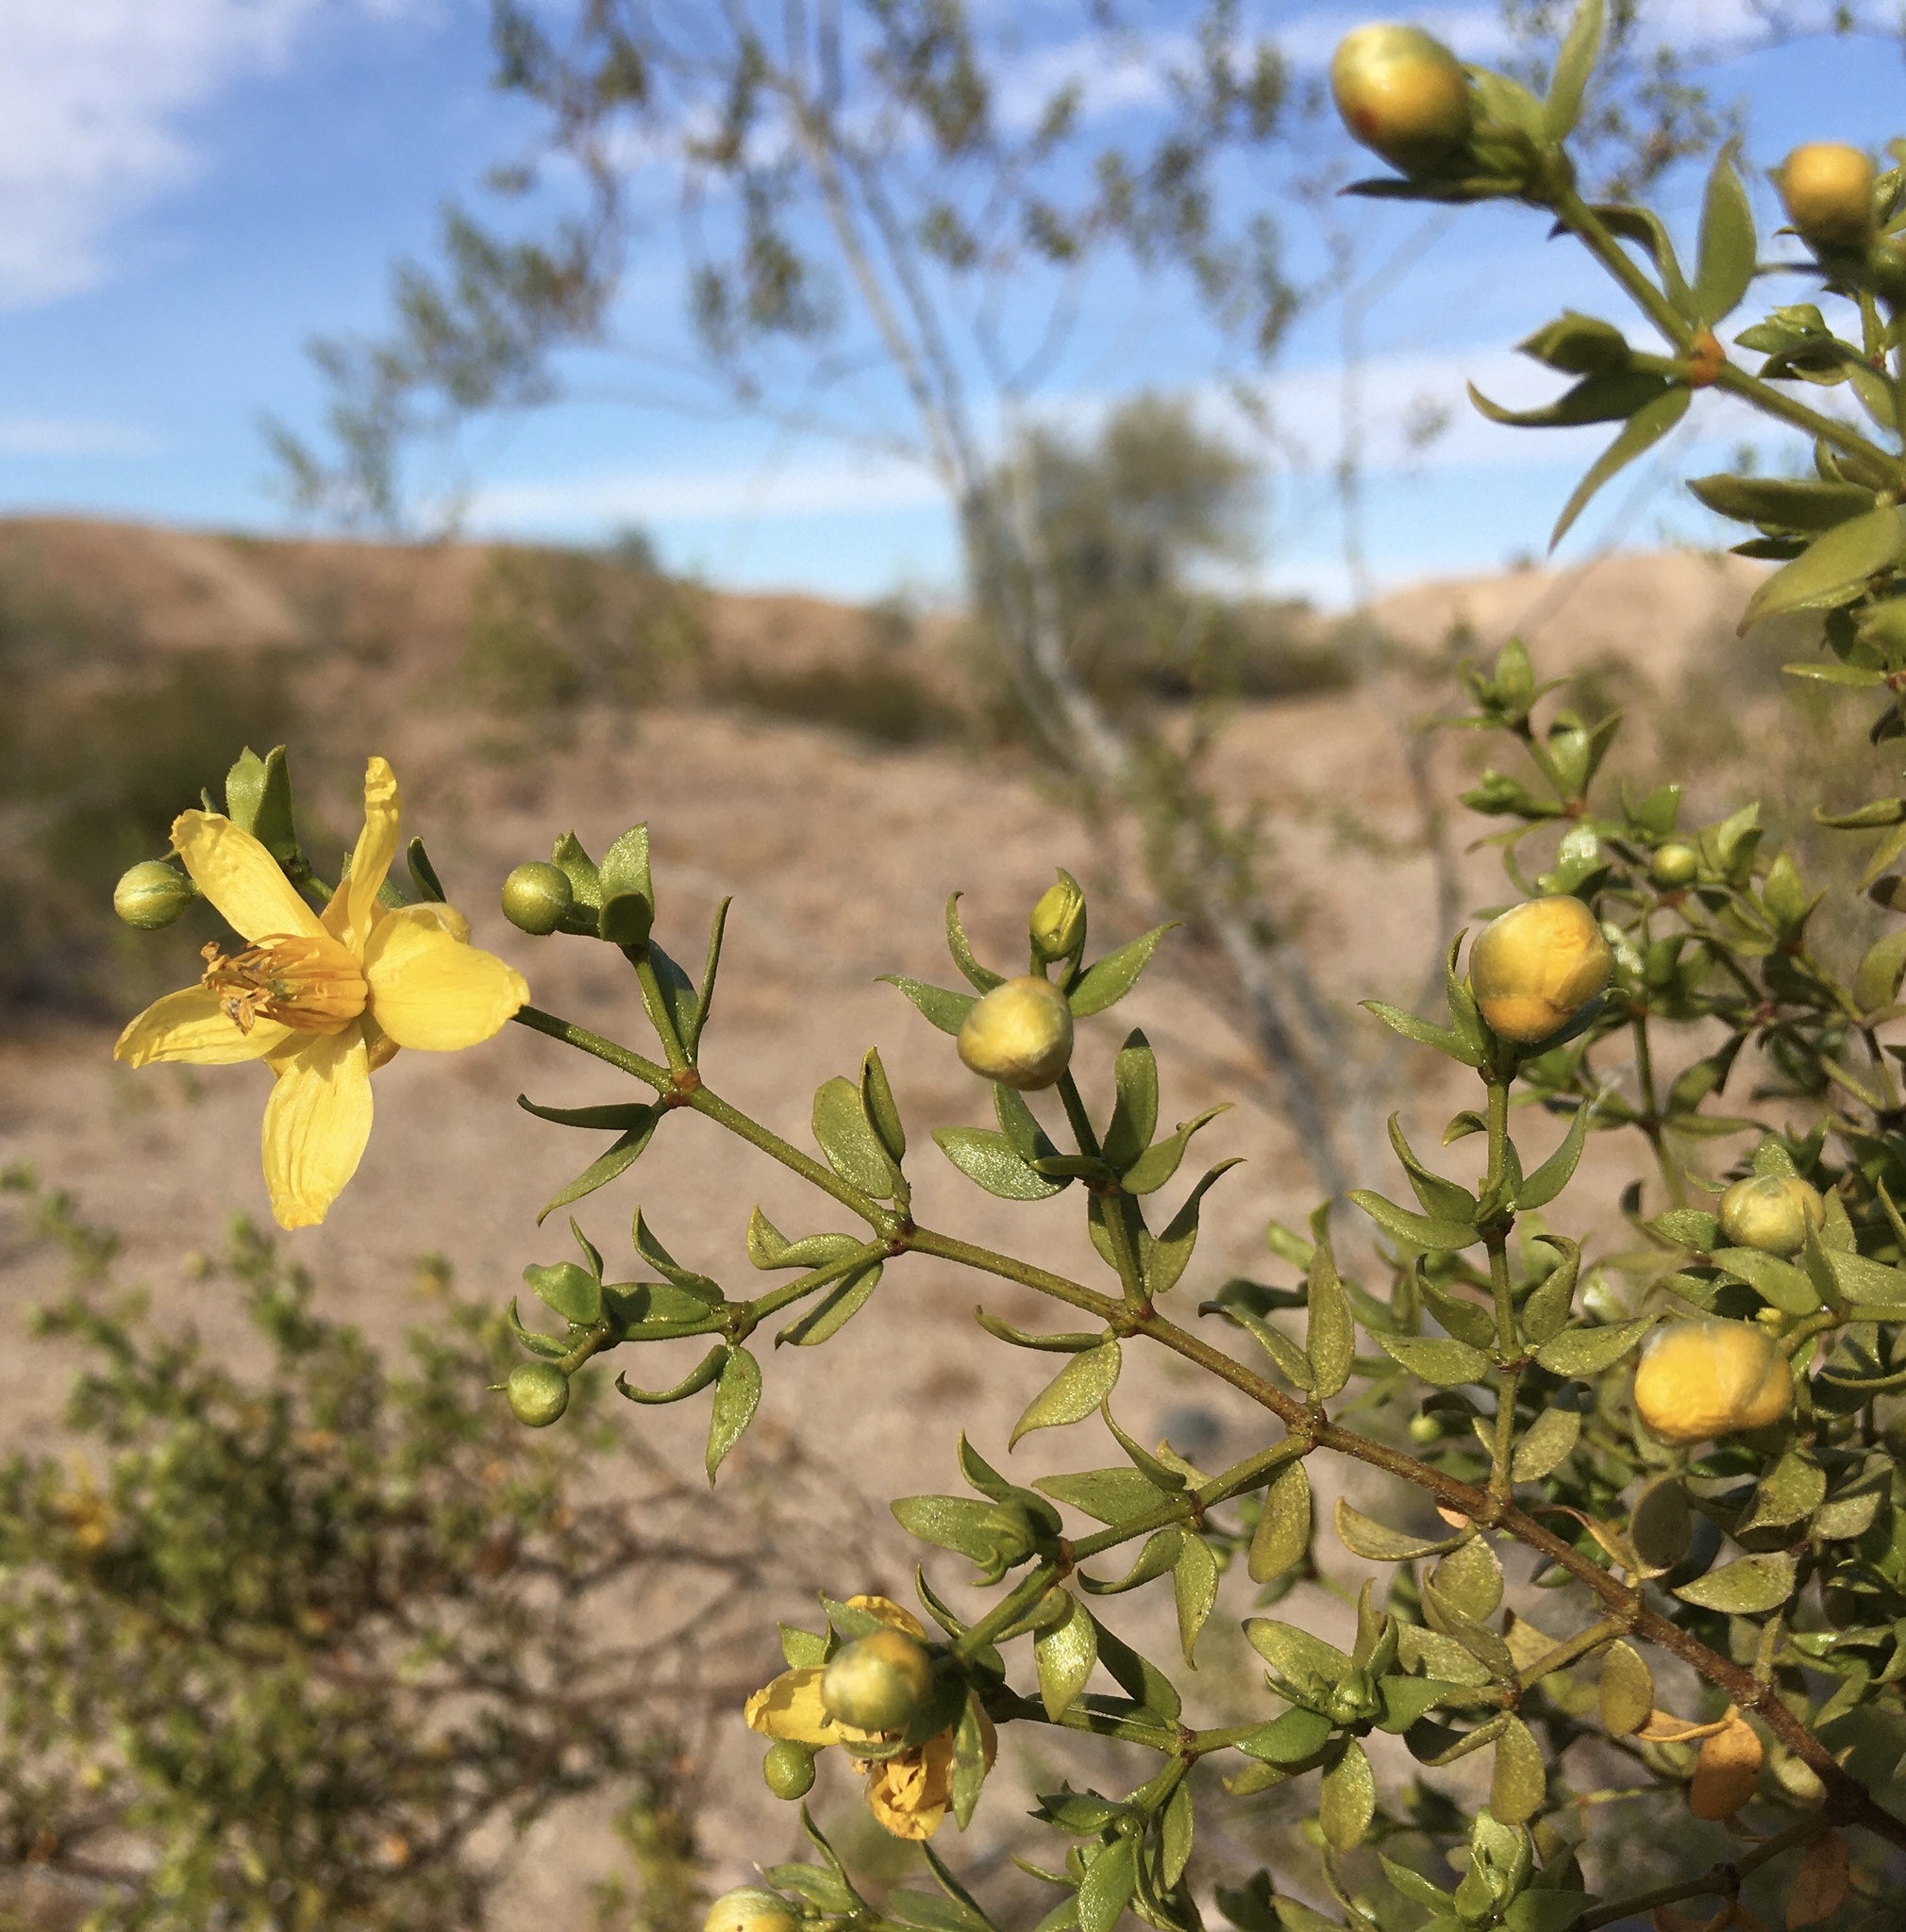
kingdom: Plantae
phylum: Tracheophyta
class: Magnoliopsida
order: Zygophyllales
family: Zygophyllaceae
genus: Larrea
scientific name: Larrea tridentata
